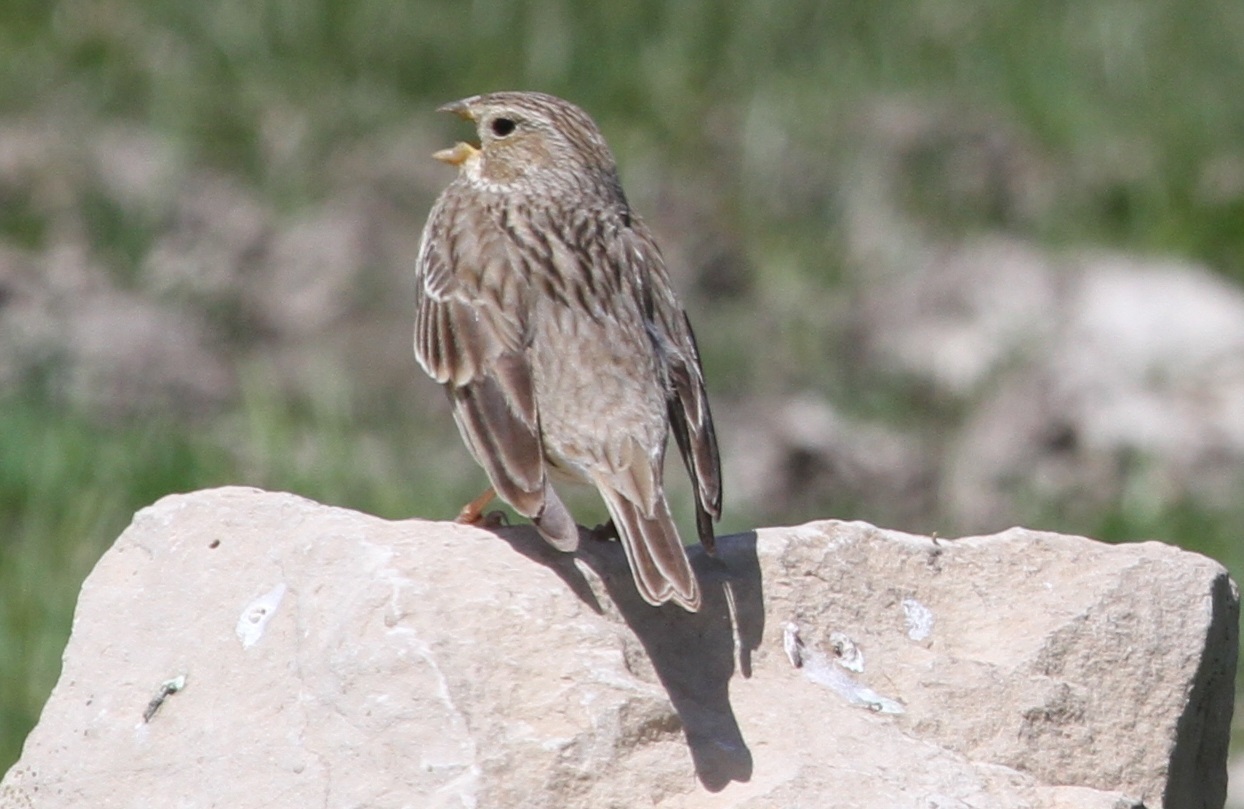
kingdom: Animalia
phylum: Chordata
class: Aves
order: Passeriformes
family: Emberizidae
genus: Emberiza
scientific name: Emberiza calandra
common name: Corn bunting
